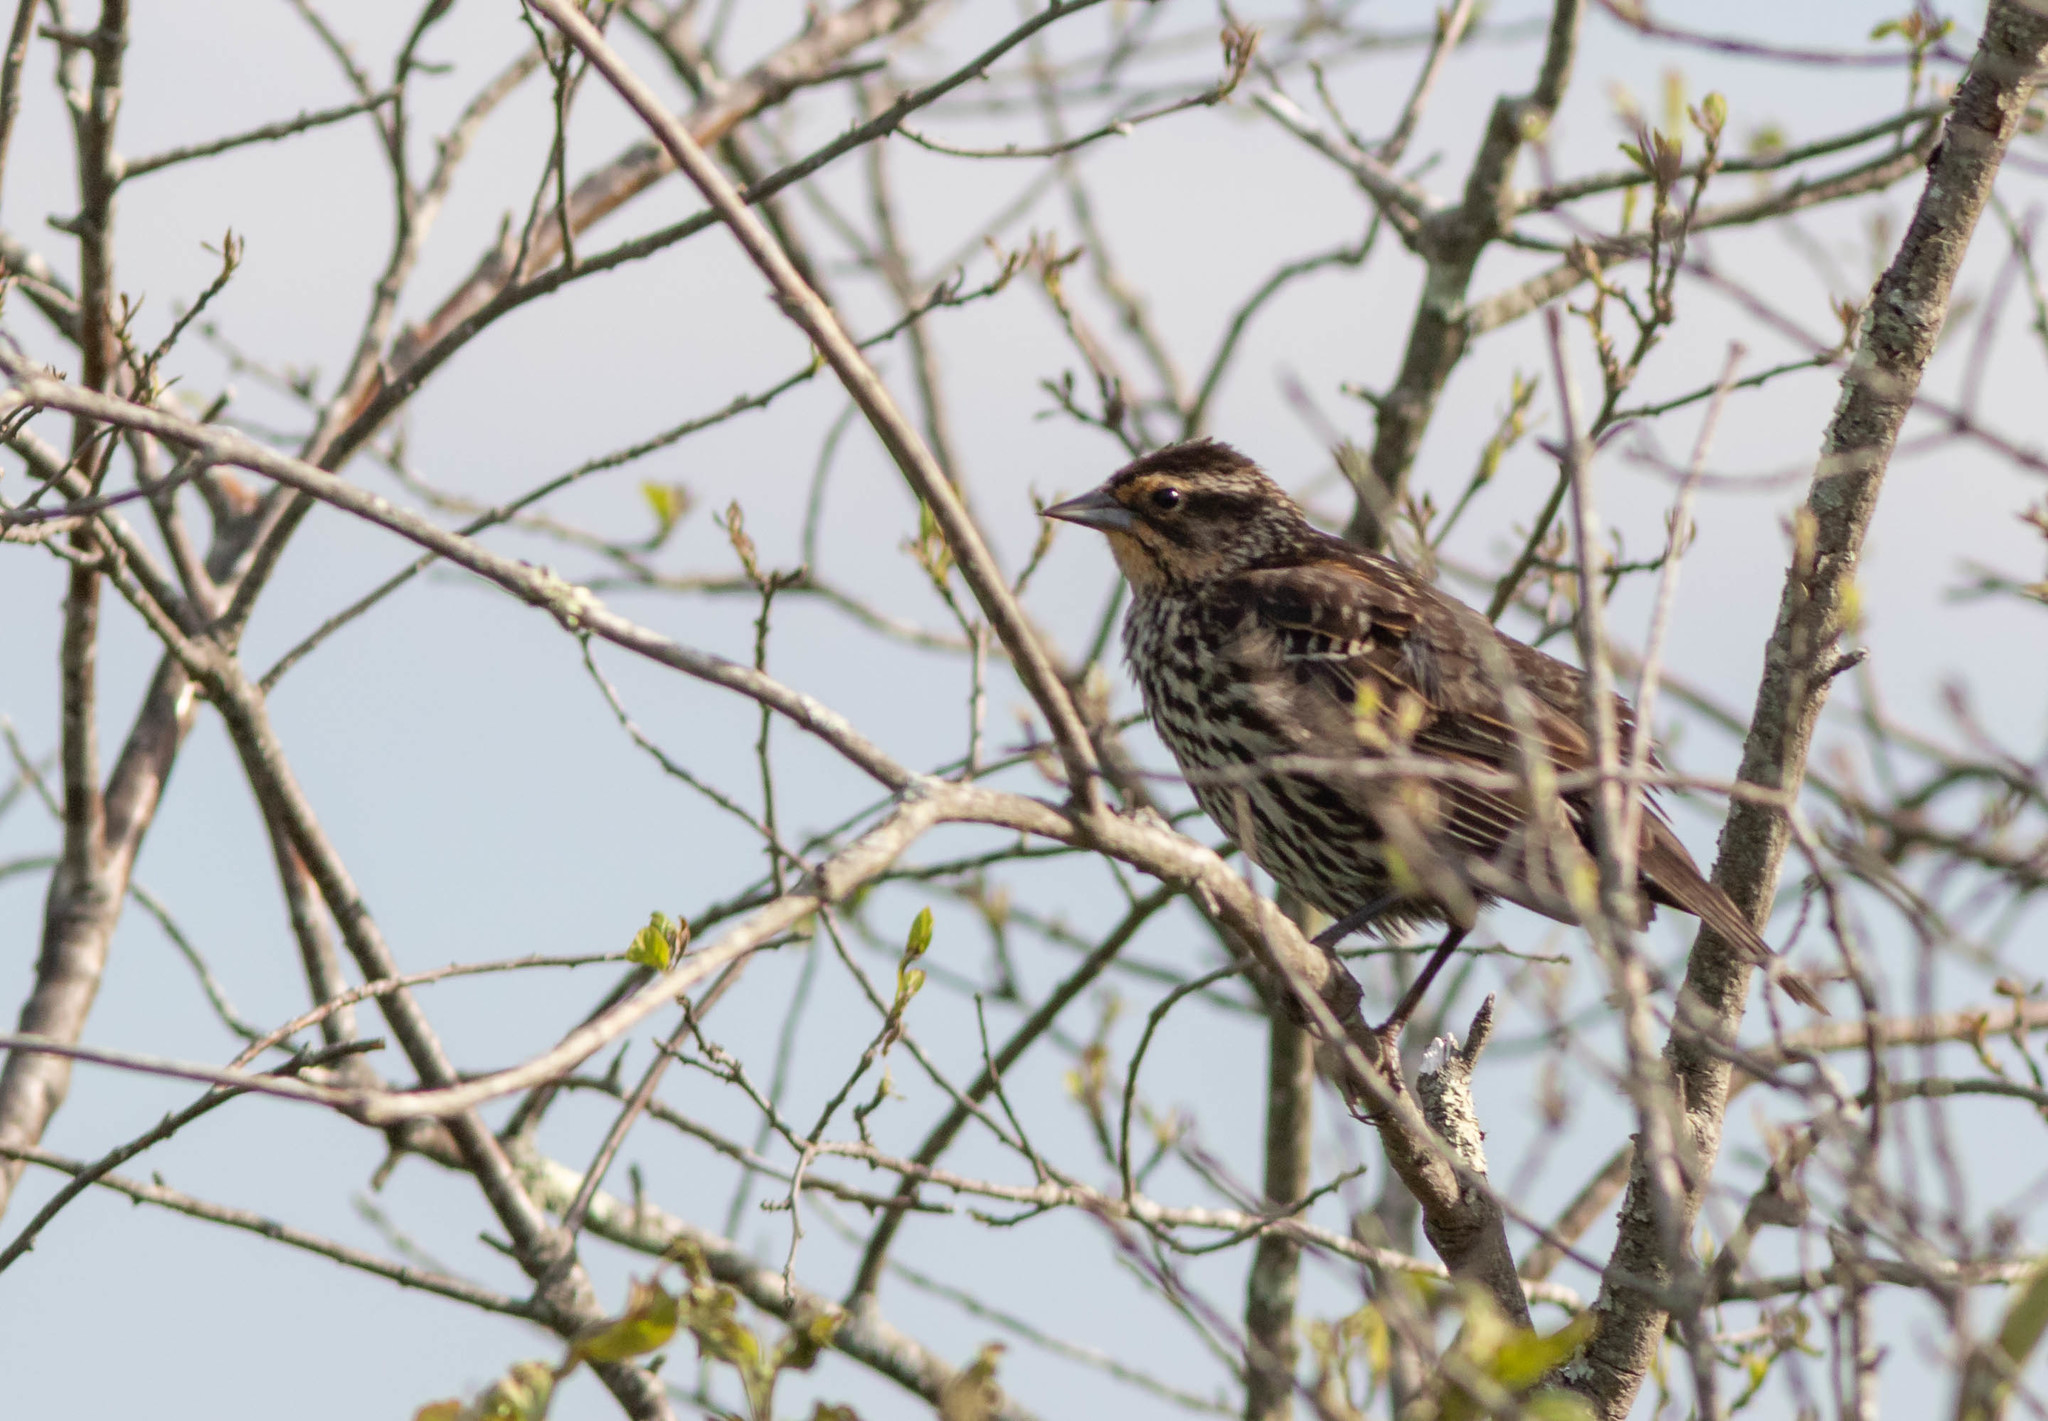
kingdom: Animalia
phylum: Chordata
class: Aves
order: Passeriformes
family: Icteridae
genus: Agelaius
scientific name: Agelaius phoeniceus
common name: Red-winged blackbird
